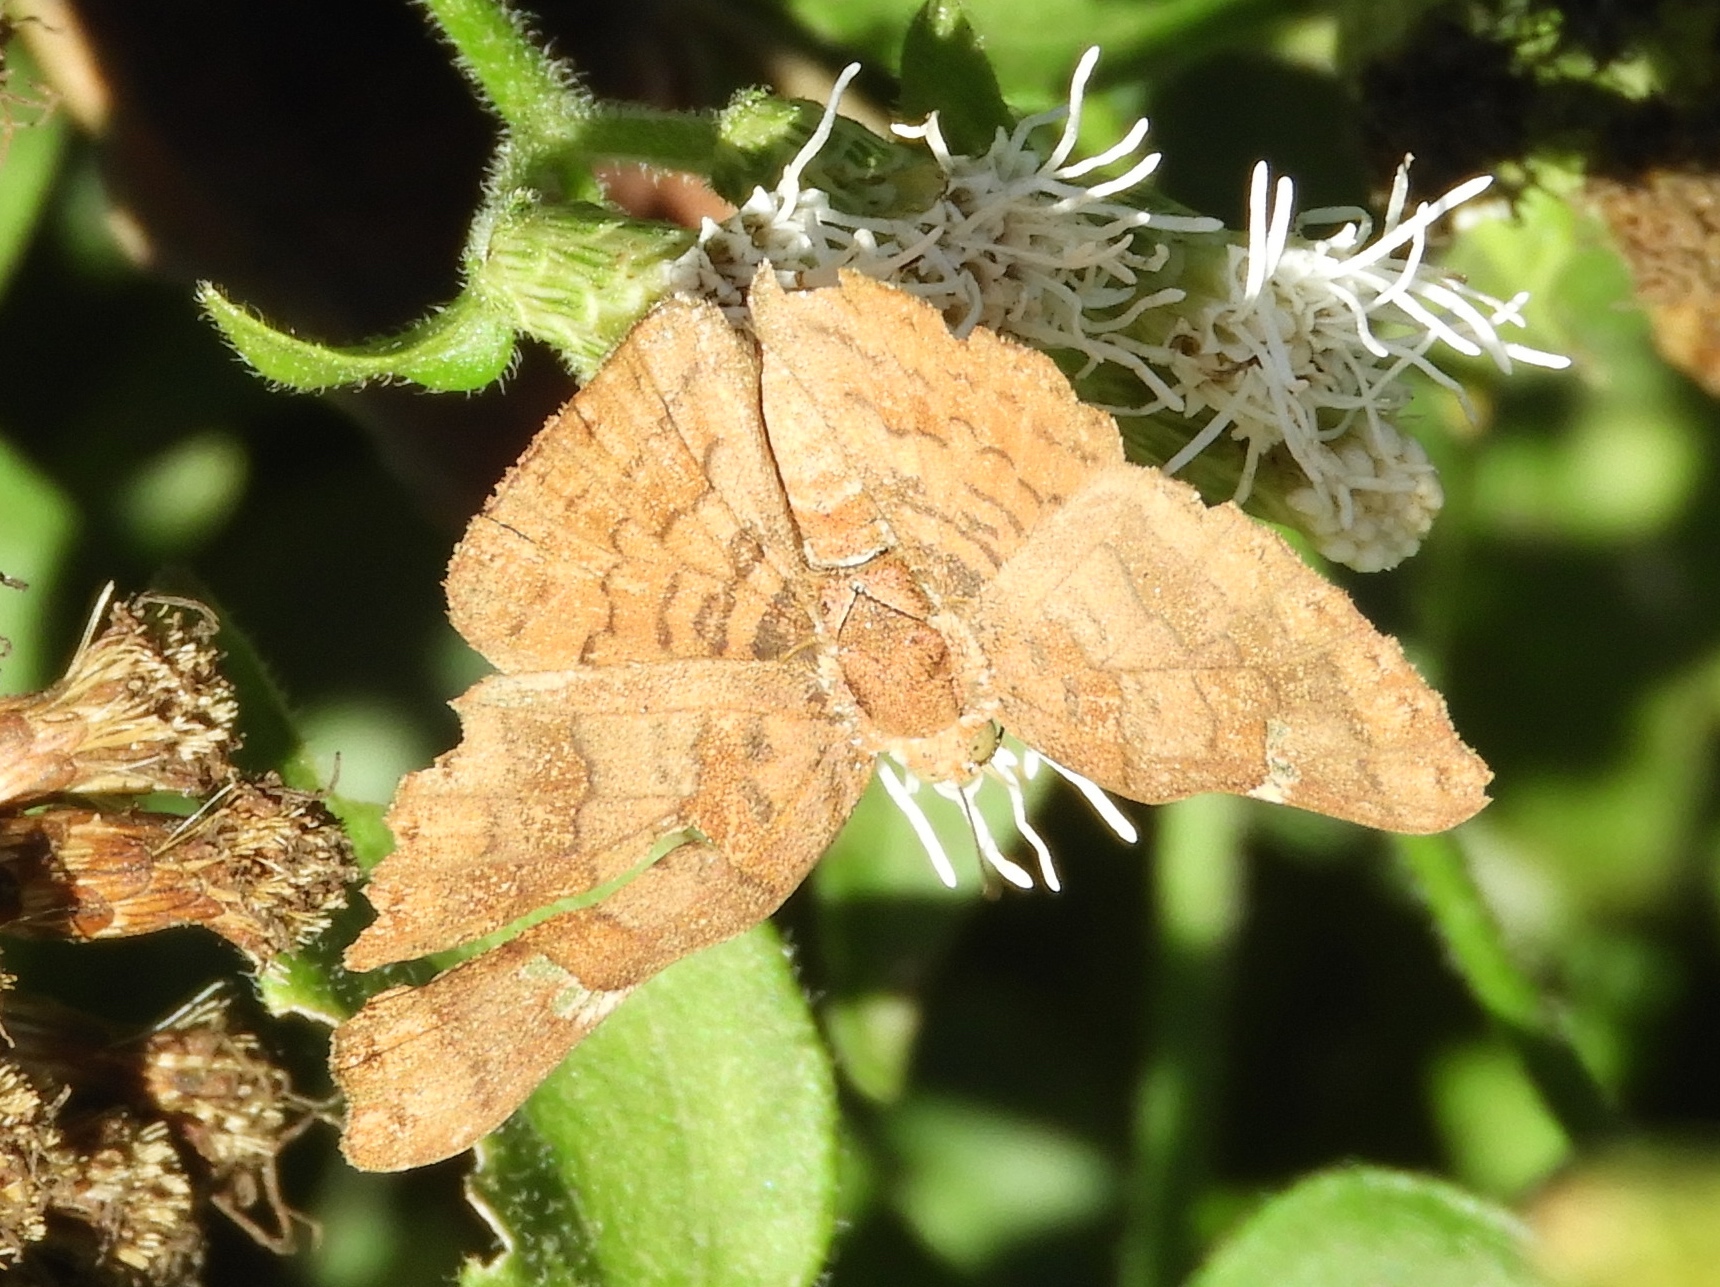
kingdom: Animalia
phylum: Arthropoda
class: Insecta
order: Lepidoptera
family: Riodinidae
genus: Curvie
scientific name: Curvie emesia
